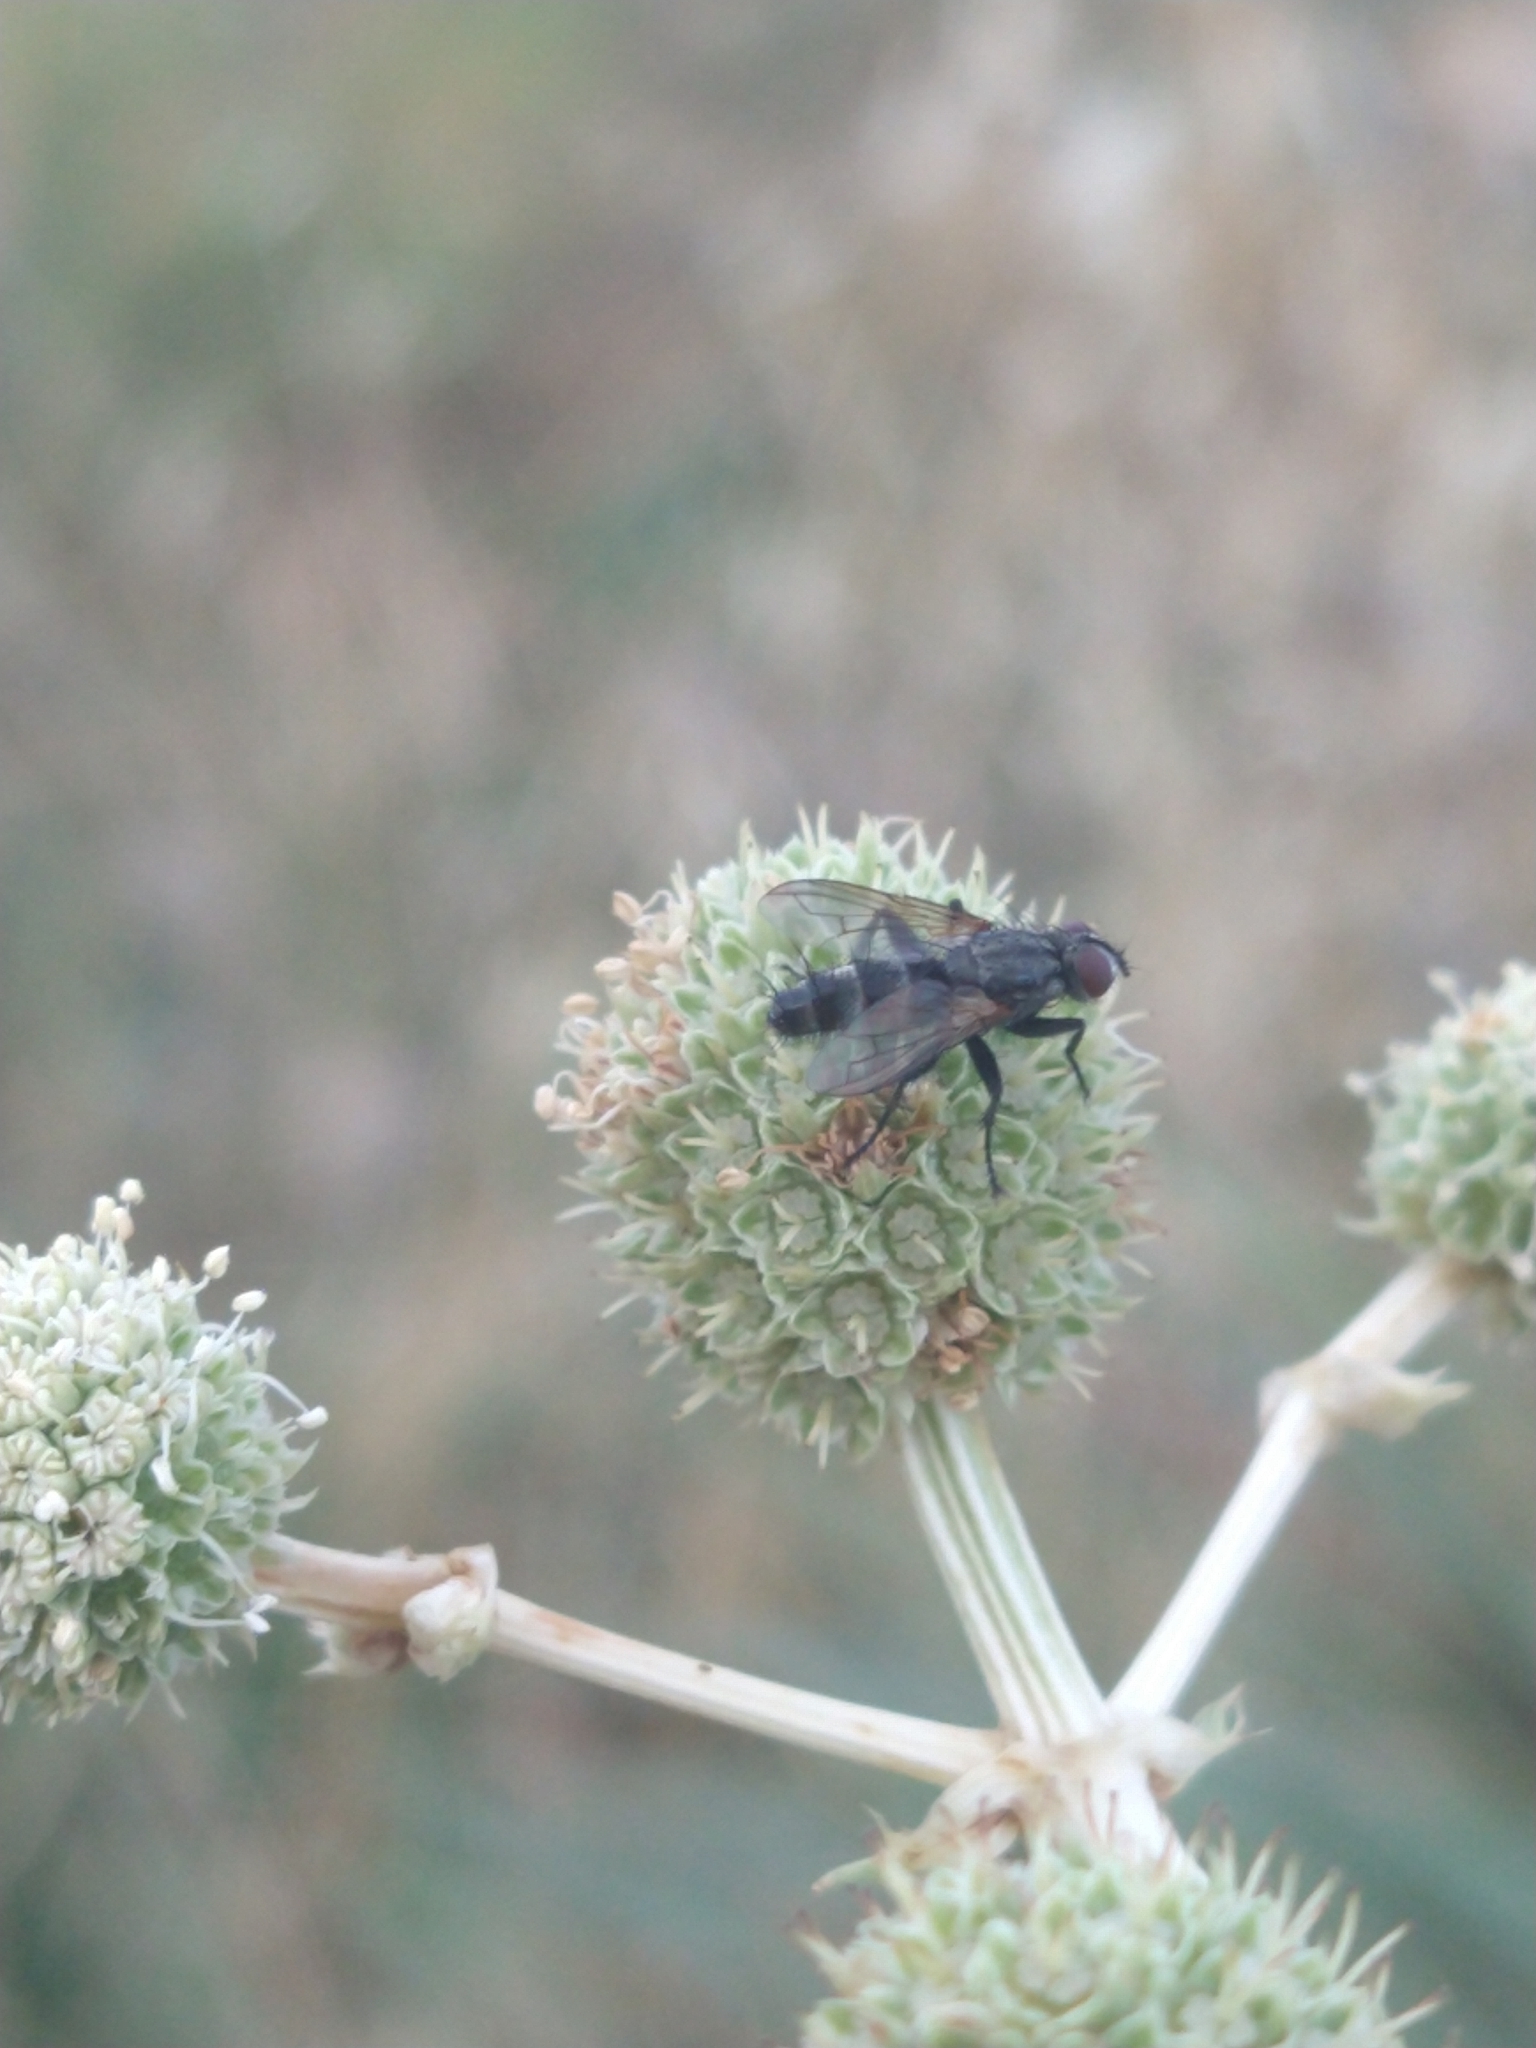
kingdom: Animalia
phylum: Arthropoda
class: Insecta
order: Diptera
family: Calliphoridae
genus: Stevenia
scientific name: Stevenia deceptoria
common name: Grizzled woodlouse-fly
